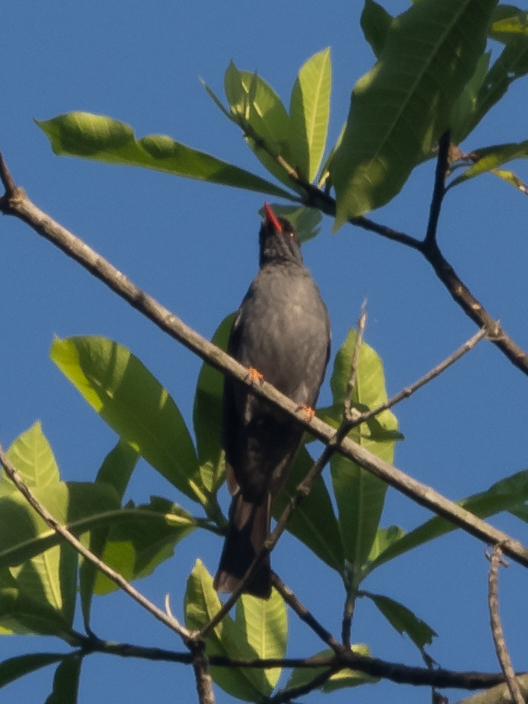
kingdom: Animalia
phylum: Chordata
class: Aves
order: Passeriformes
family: Pycnonotidae
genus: Hypsipetes
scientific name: Hypsipetes ganeesa
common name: Square-tailed bulbul
